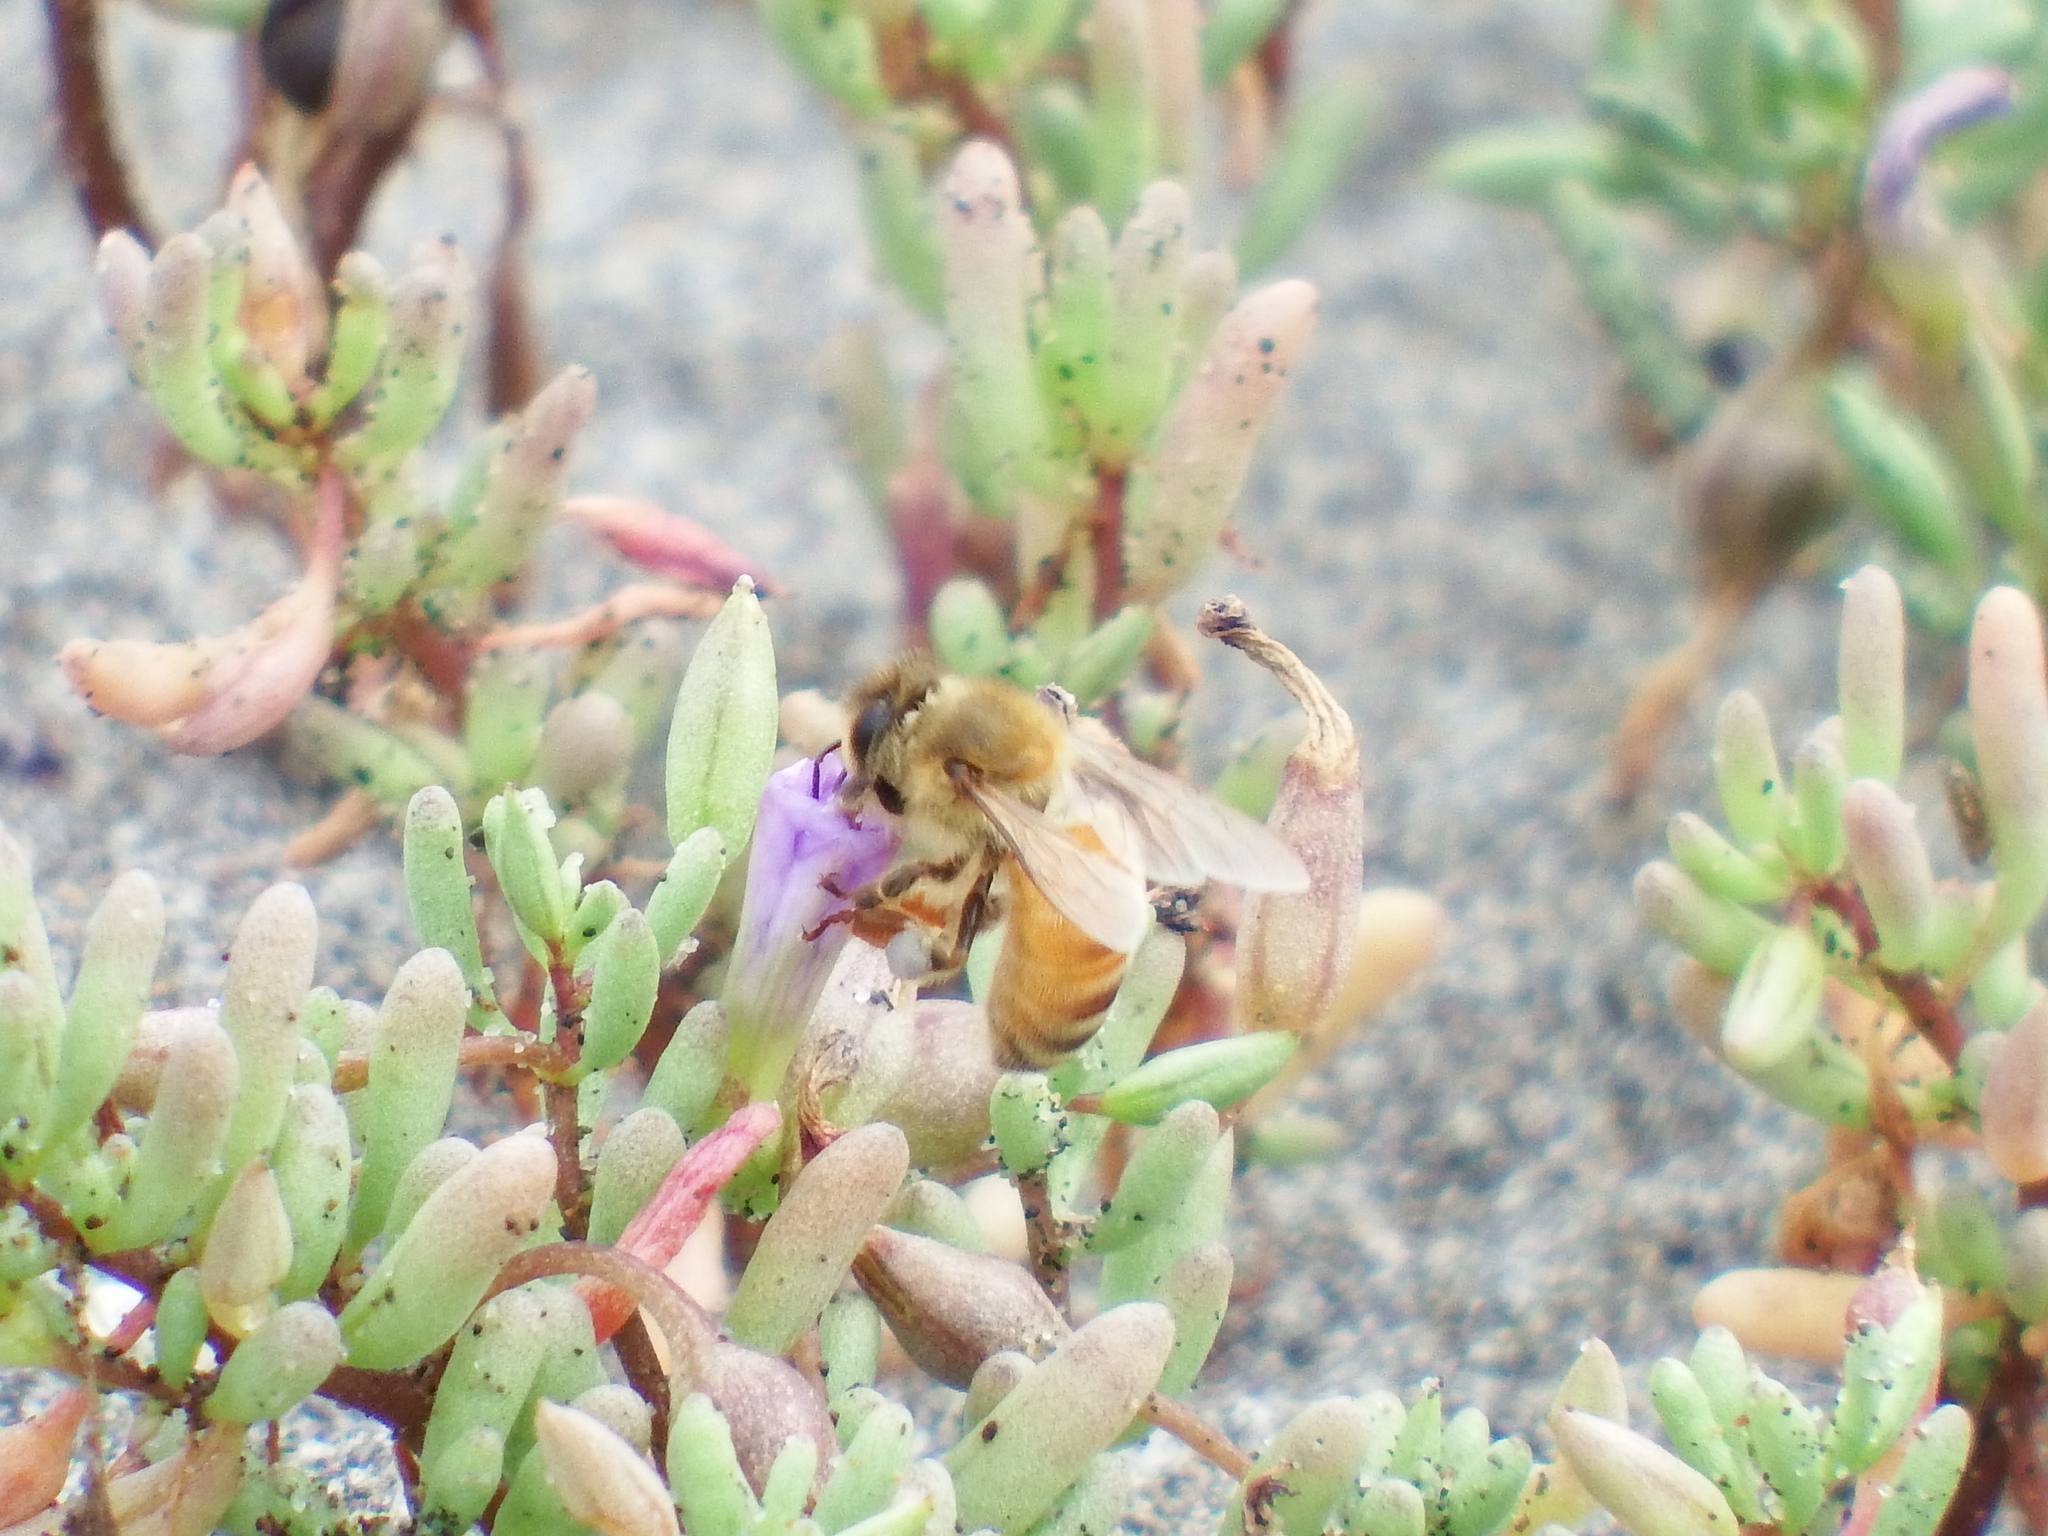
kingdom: Animalia
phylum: Arthropoda
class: Insecta
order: Hymenoptera
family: Apidae
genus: Apis
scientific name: Apis mellifera
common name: Honey bee
